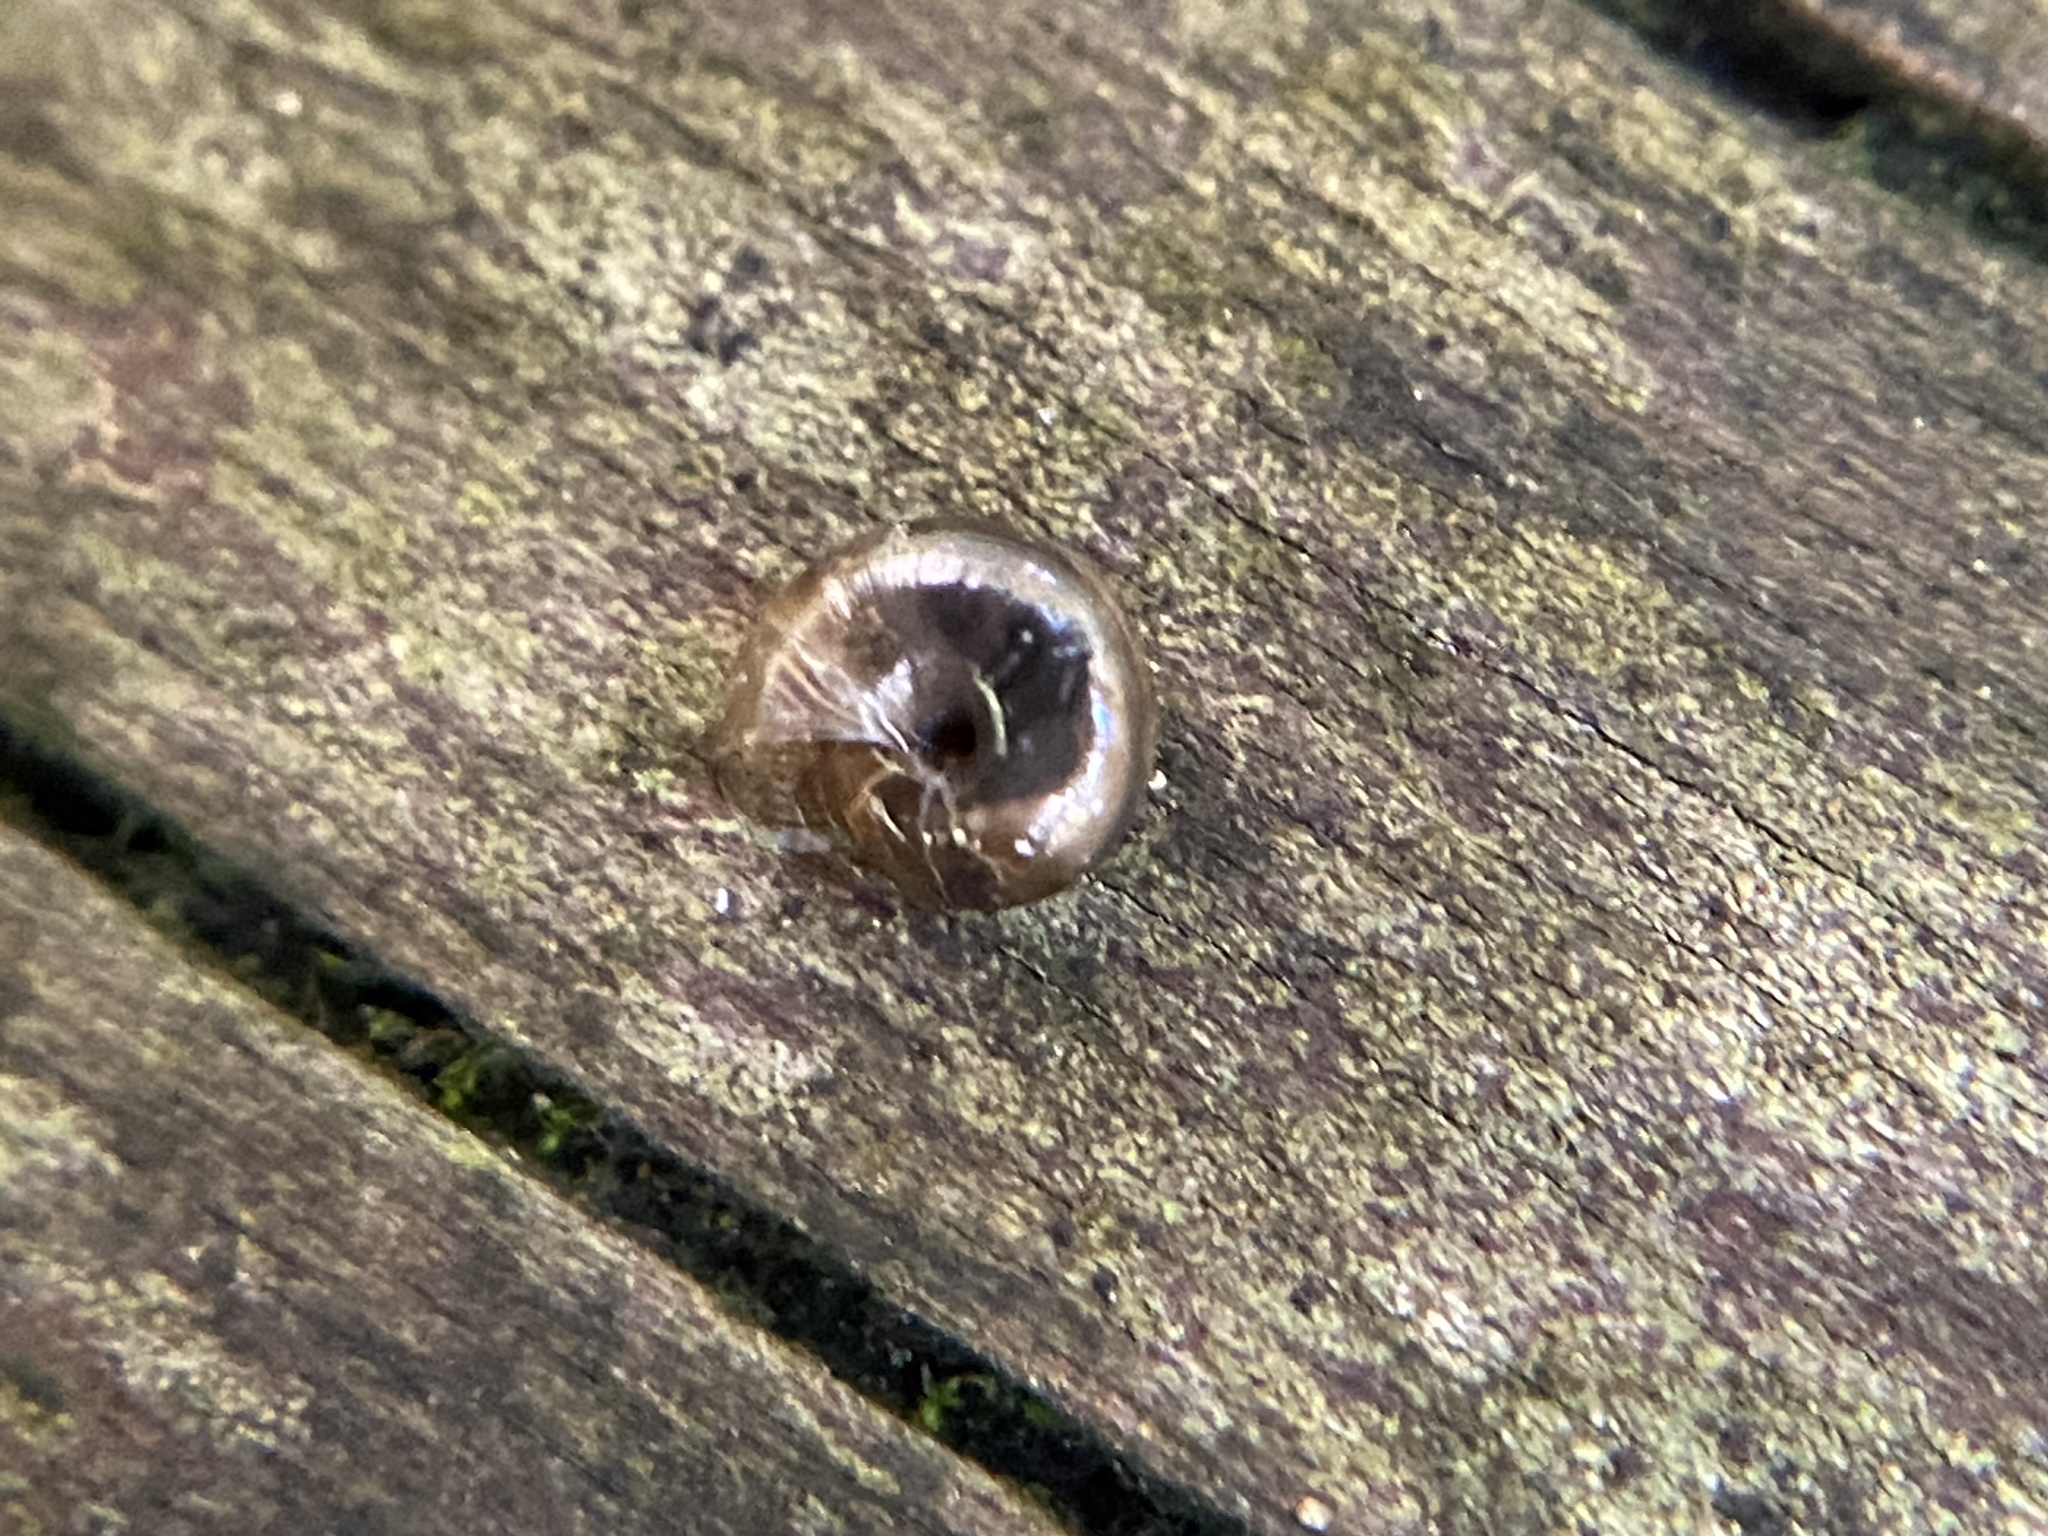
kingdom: Animalia
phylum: Mollusca
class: Gastropoda
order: Stylommatophora
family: Gastrodontidae
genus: Zonitoides
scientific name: Zonitoides arboreus
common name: Quick gloss
